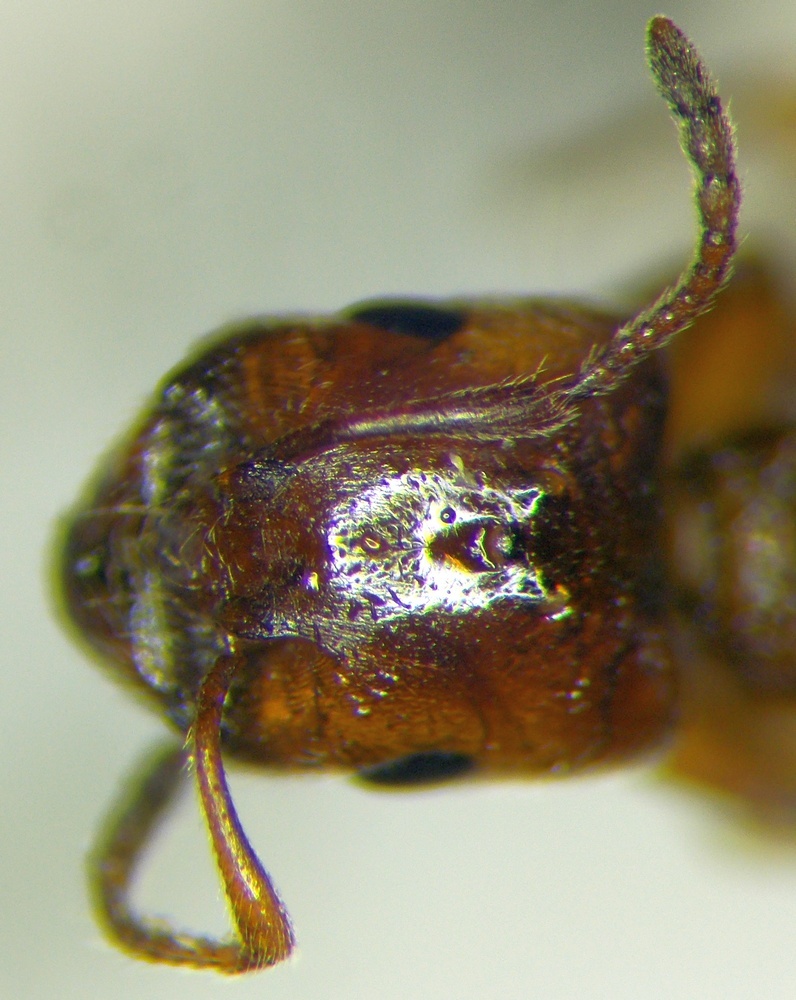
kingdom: Animalia
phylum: Arthropoda
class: Insecta
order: Hymenoptera
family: Formicidae
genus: Crematogaster
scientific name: Crematogaster lorteti
